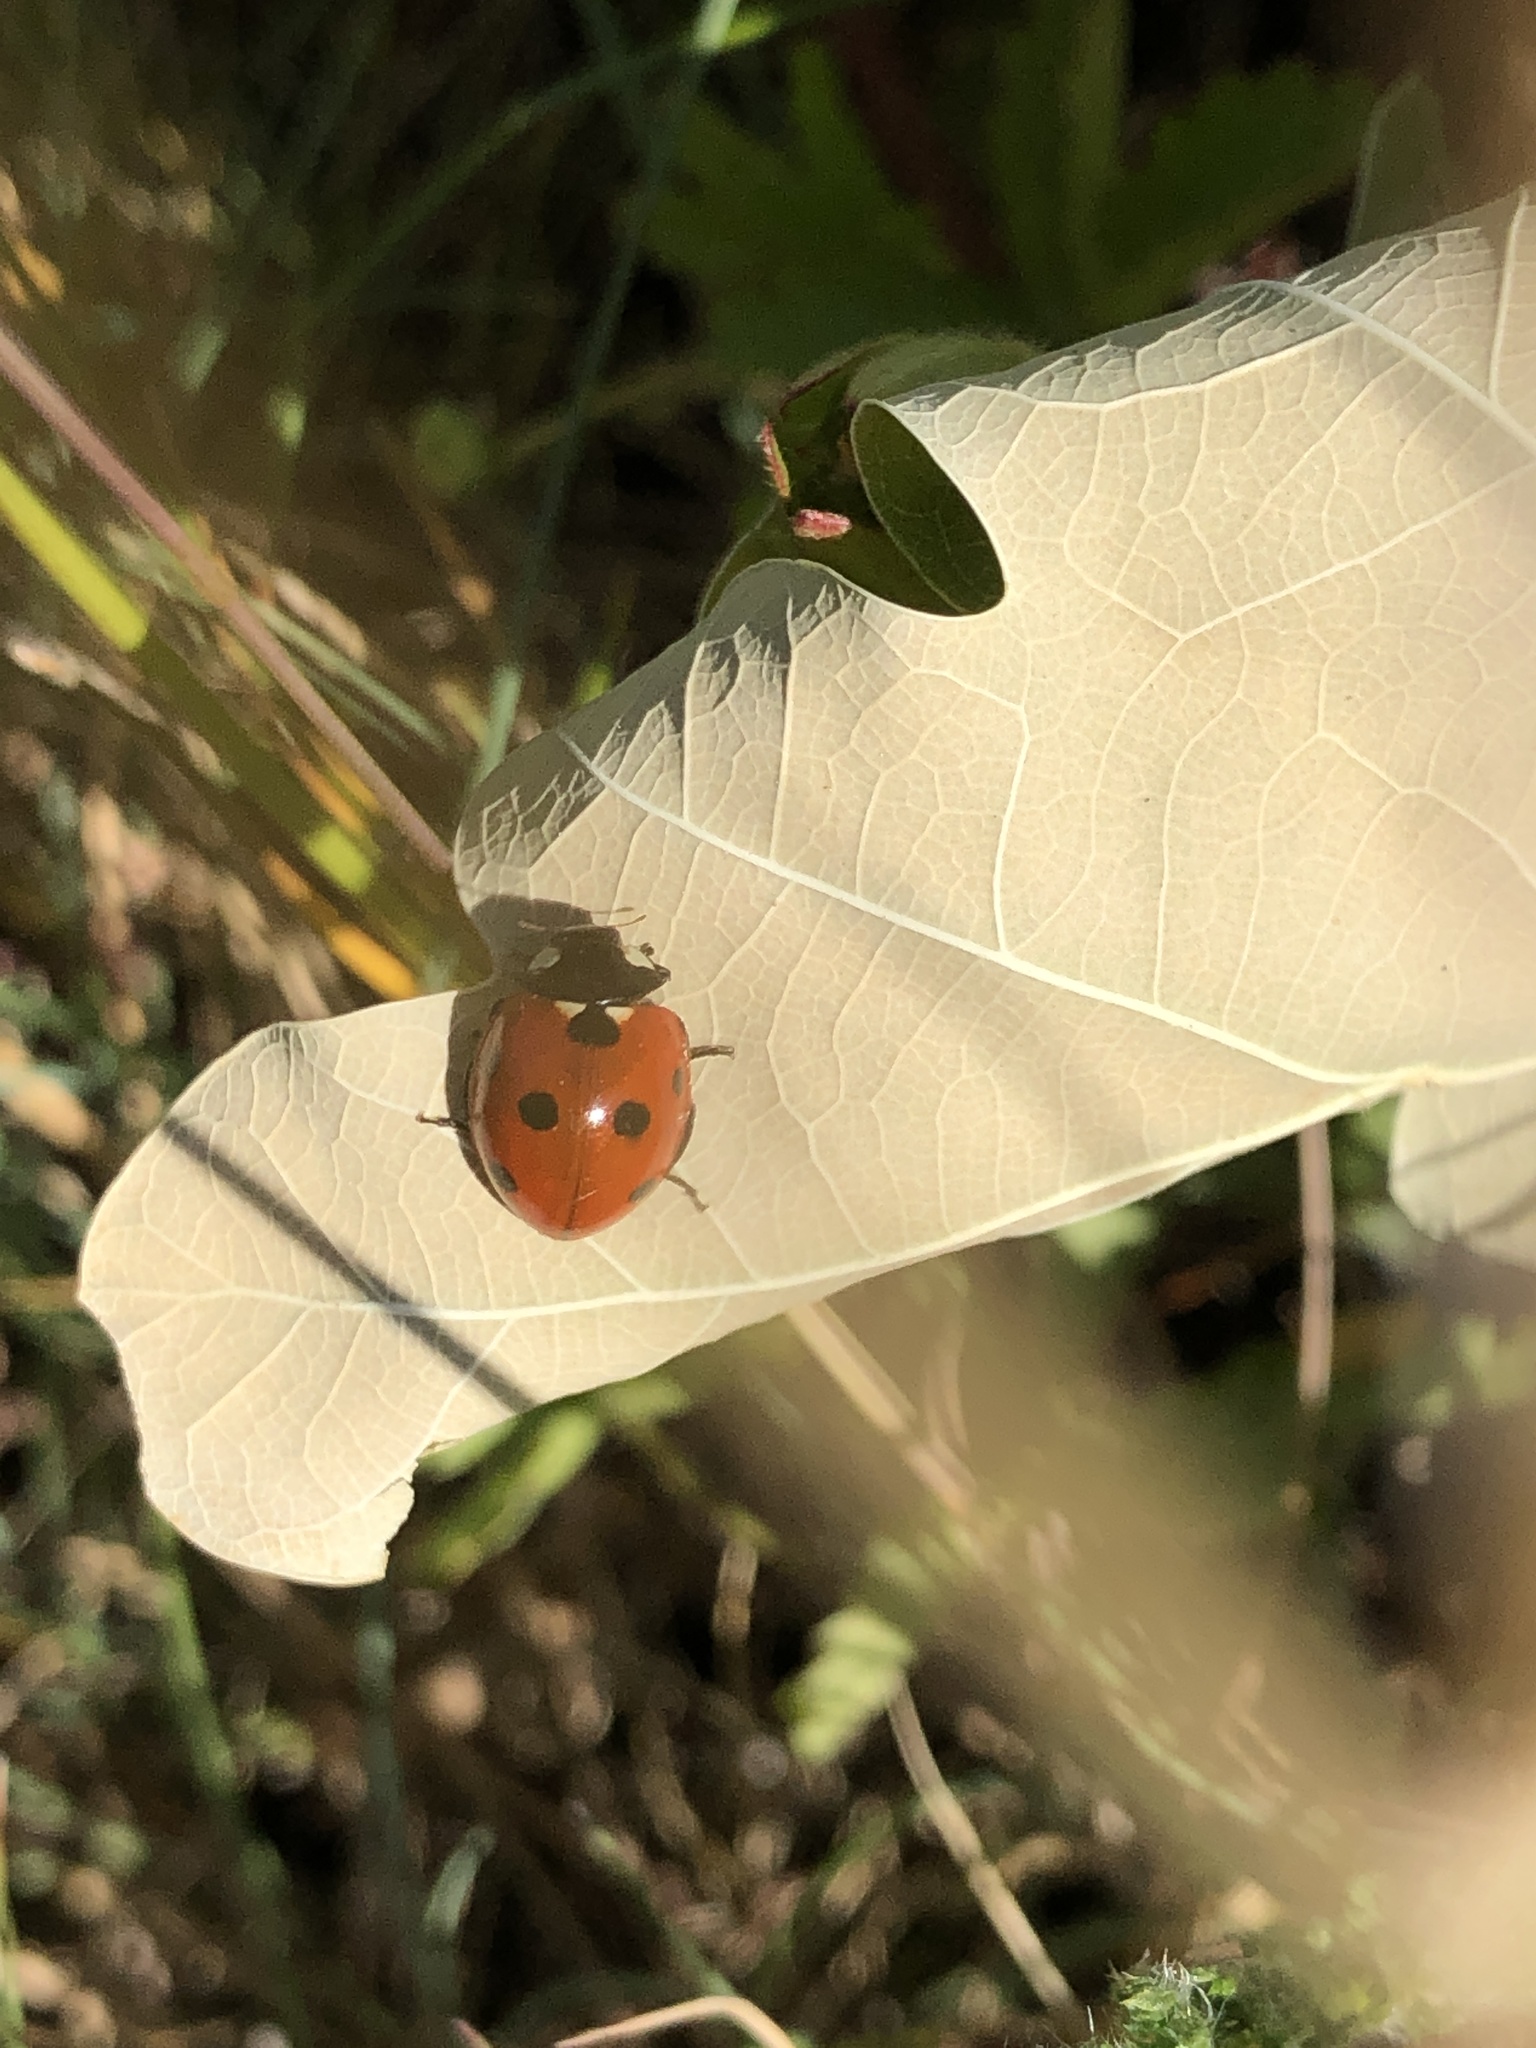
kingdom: Animalia
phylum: Arthropoda
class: Insecta
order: Coleoptera
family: Coccinellidae
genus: Coccinella
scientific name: Coccinella septempunctata
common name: Sevenspotted lady beetle
